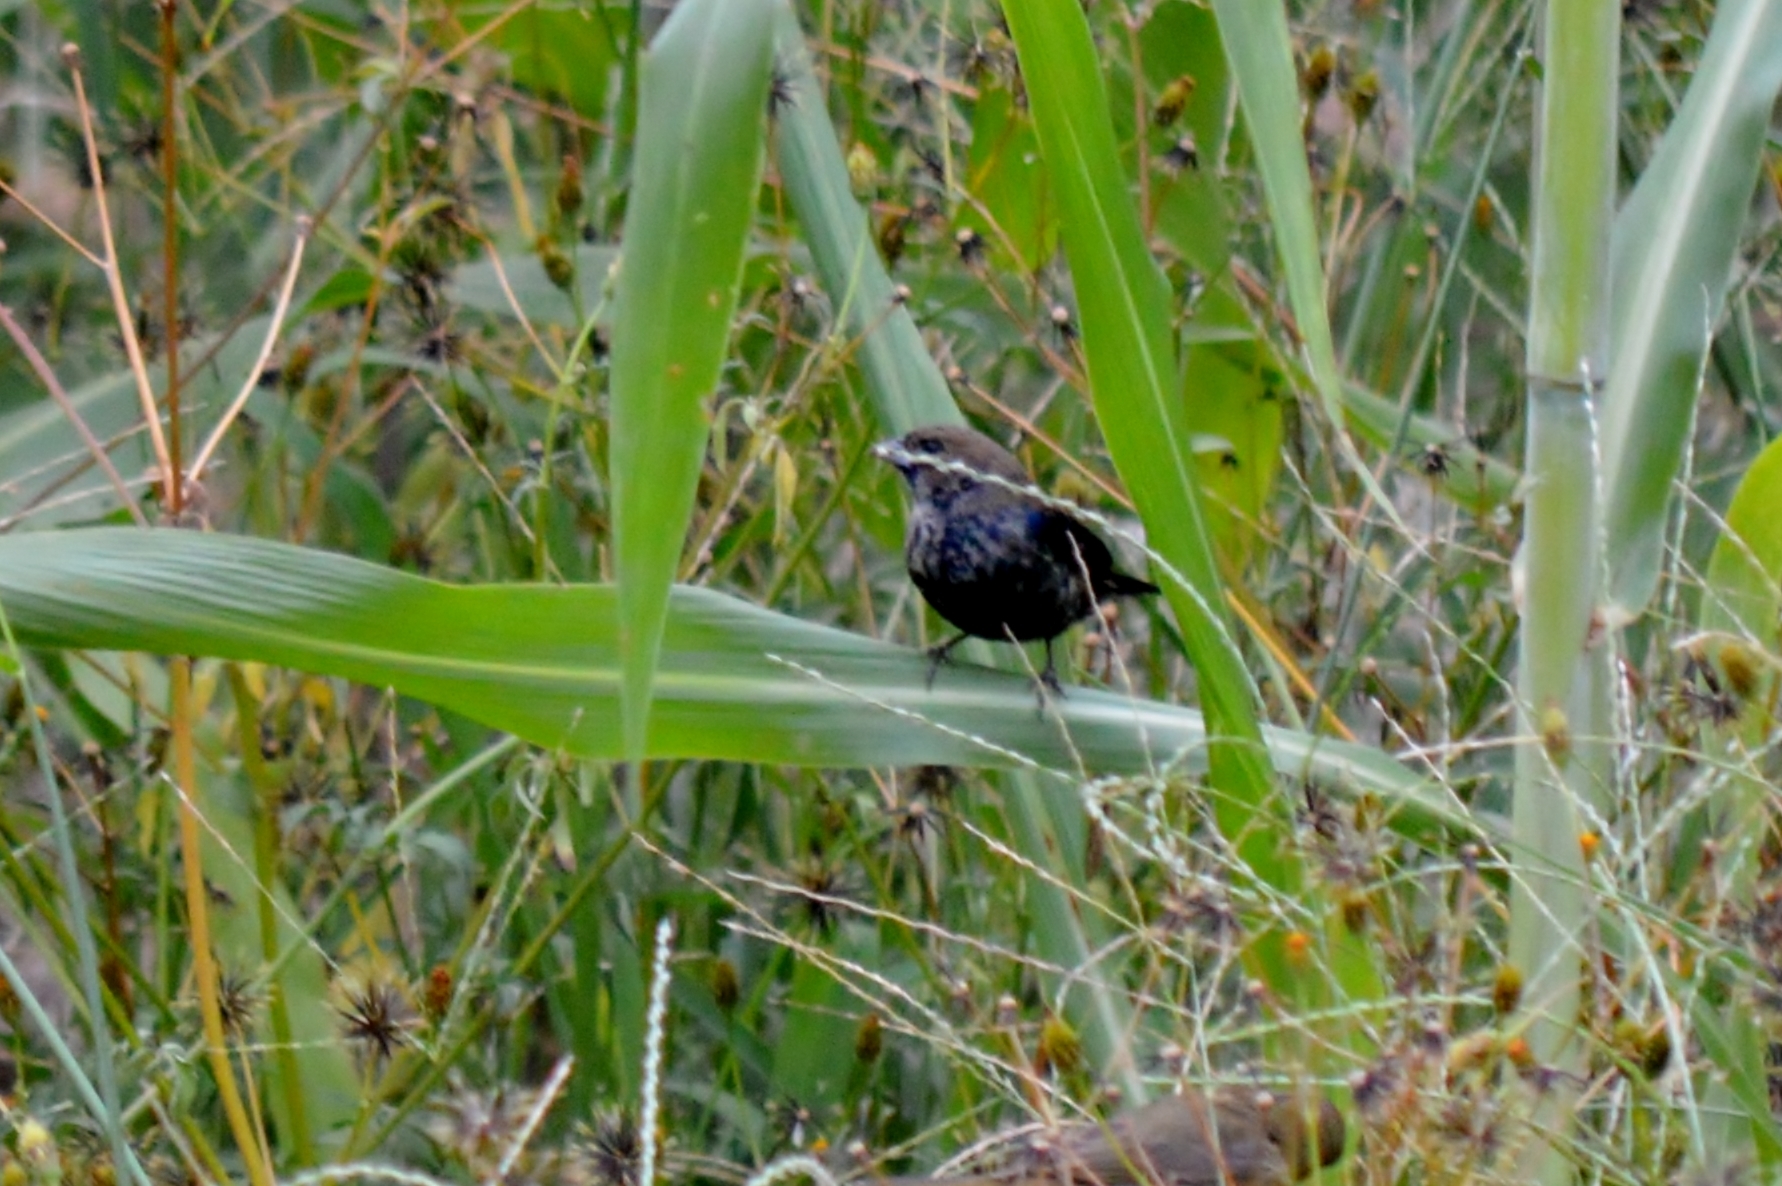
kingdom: Animalia
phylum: Chordata
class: Aves
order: Passeriformes
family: Thraupidae
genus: Volatinia
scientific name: Volatinia jacarina
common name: Blue-black grassquit
